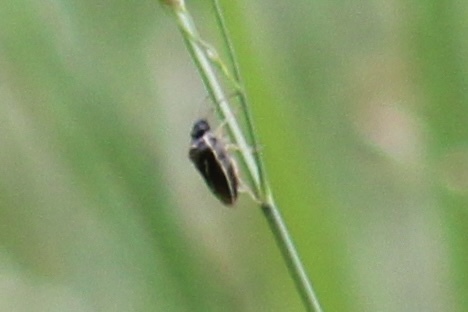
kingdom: Animalia
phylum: Arthropoda
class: Insecta
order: Hemiptera
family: Pentatomidae
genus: Mormidea
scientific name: Mormidea lugens
